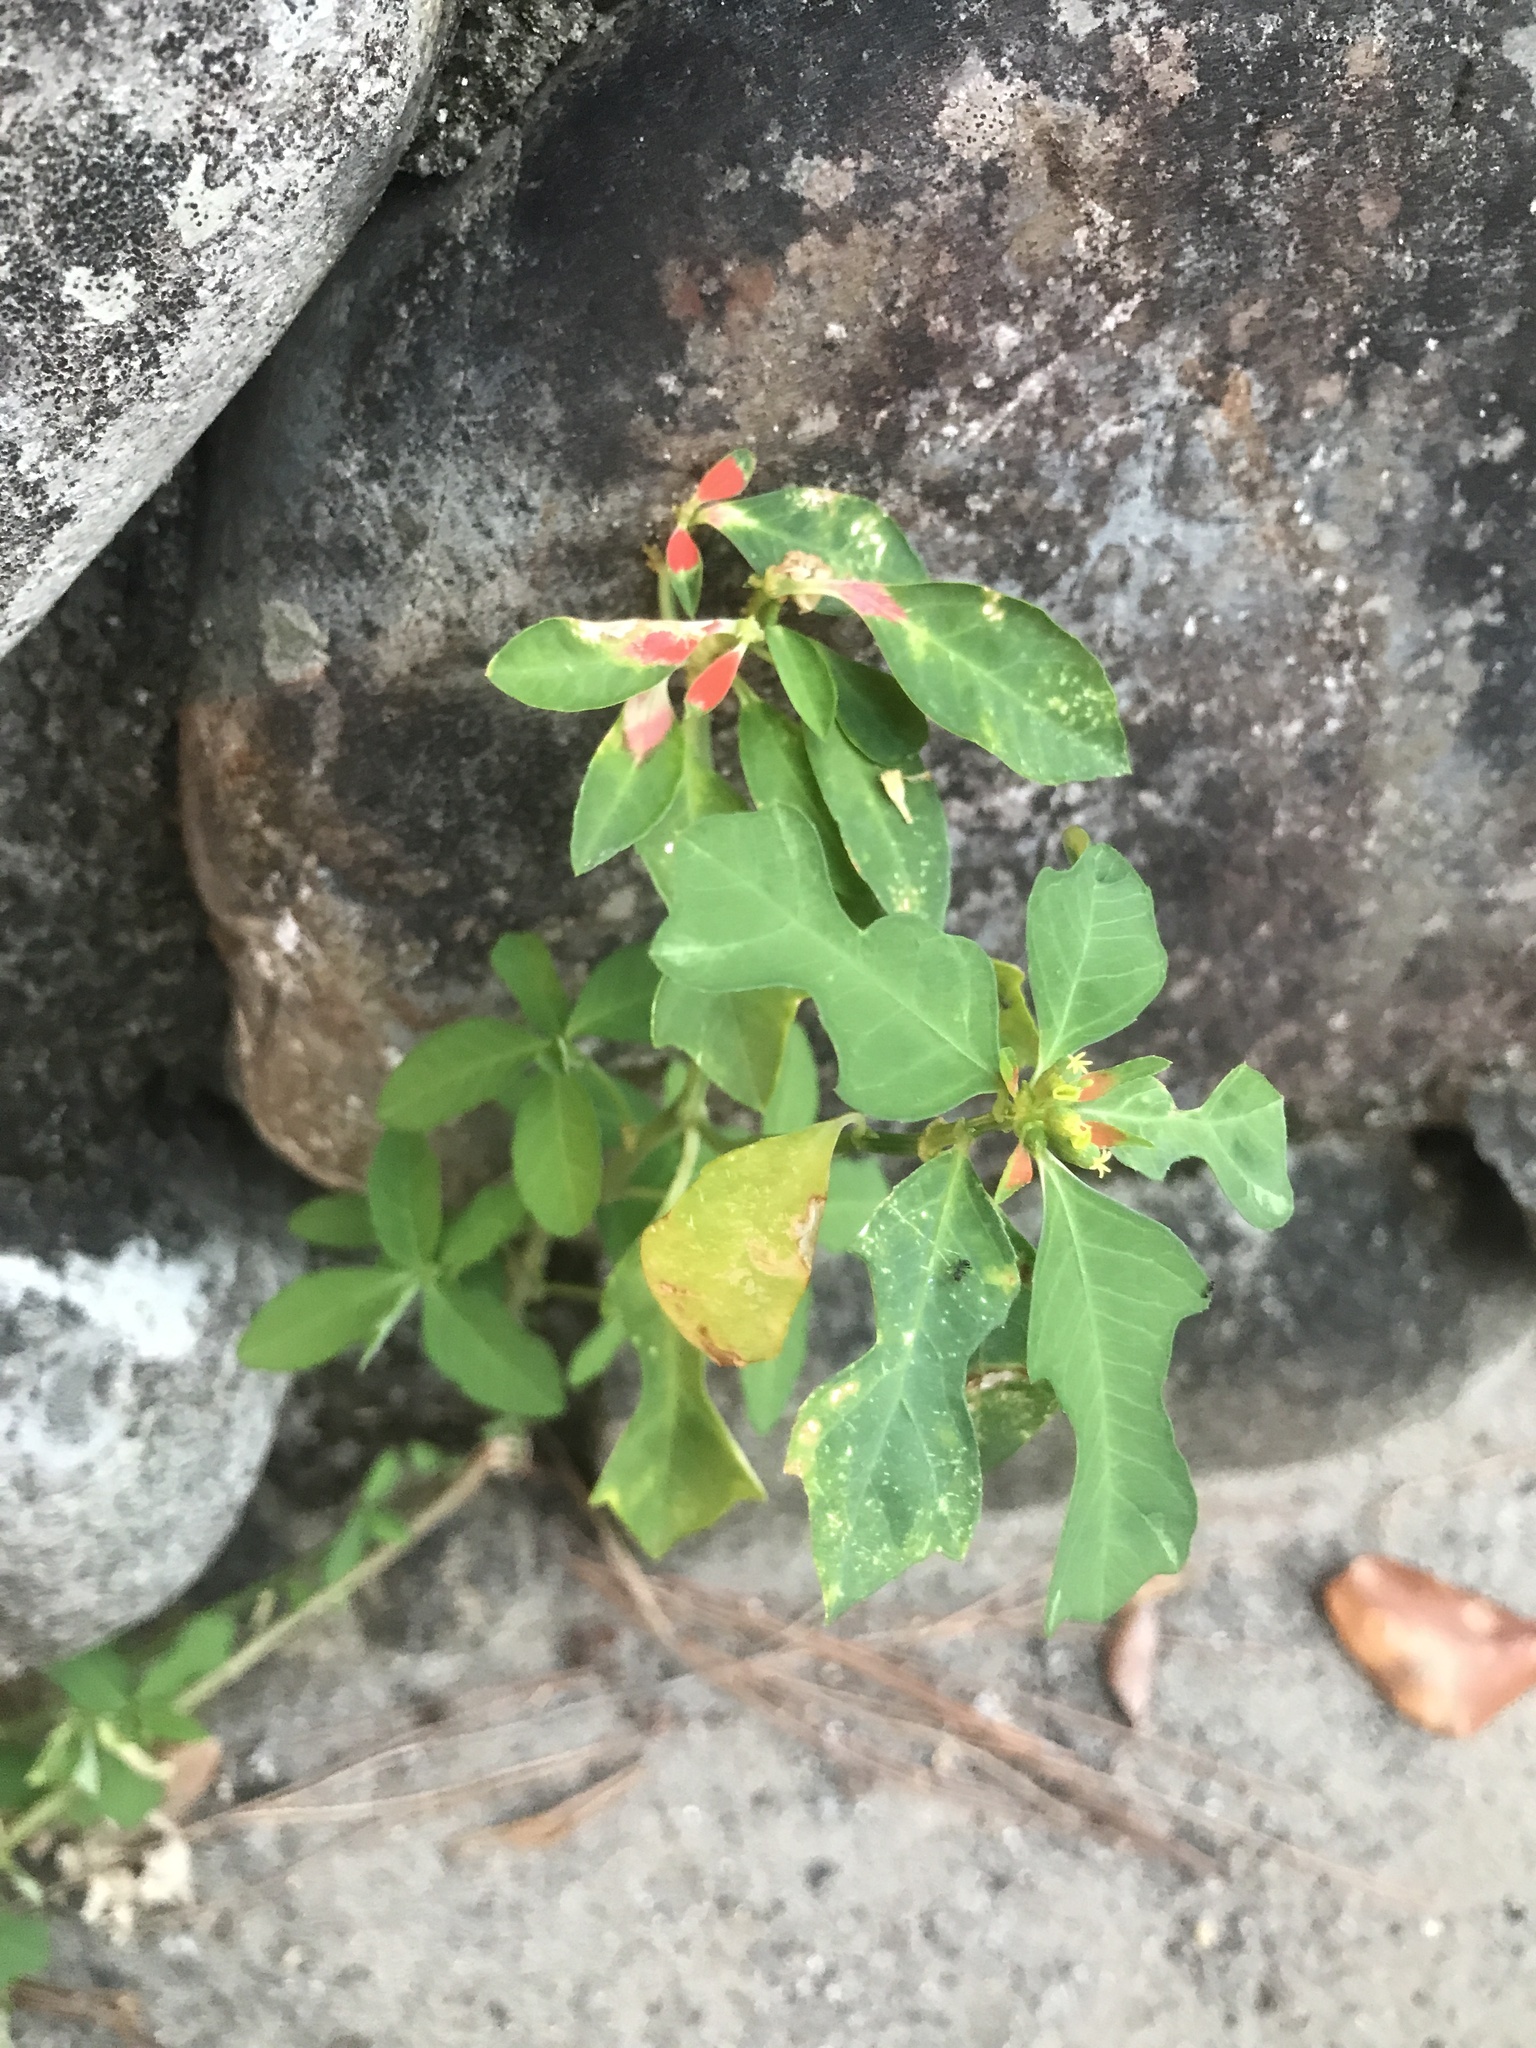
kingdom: Plantae
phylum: Tracheophyta
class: Magnoliopsida
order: Malpighiales
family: Euphorbiaceae
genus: Euphorbia
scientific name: Euphorbia heterophylla
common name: Mexican fireplant
